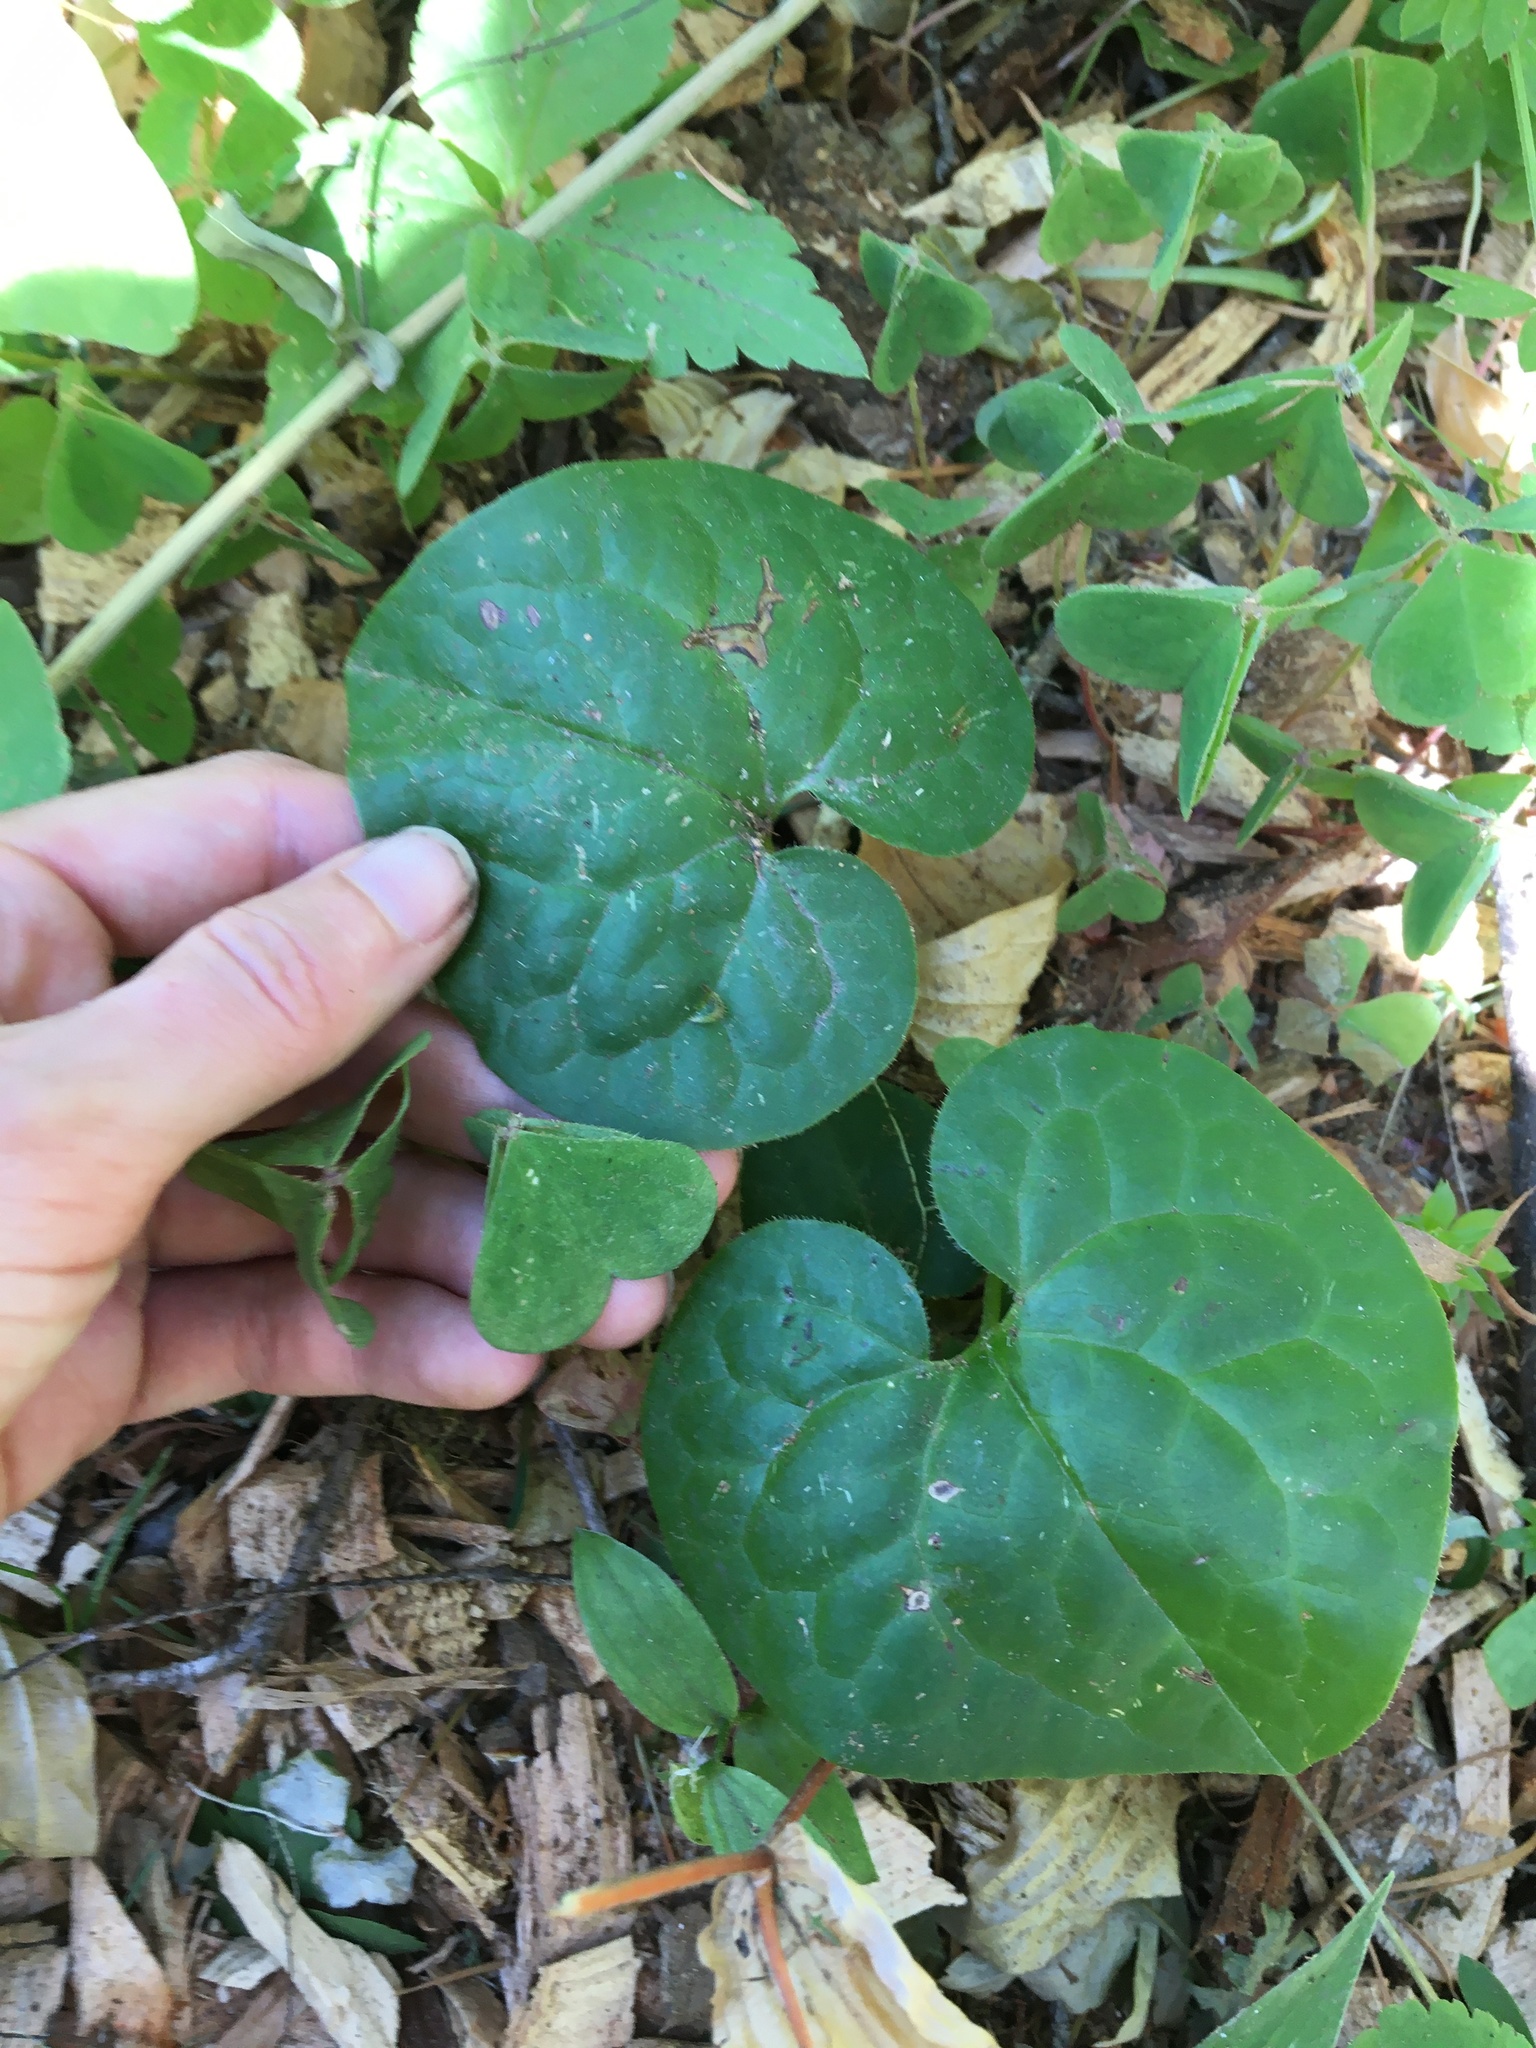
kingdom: Plantae
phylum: Tracheophyta
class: Magnoliopsida
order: Piperales
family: Aristolochiaceae
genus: Asarum
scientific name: Asarum caudatum
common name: Wild ginger
